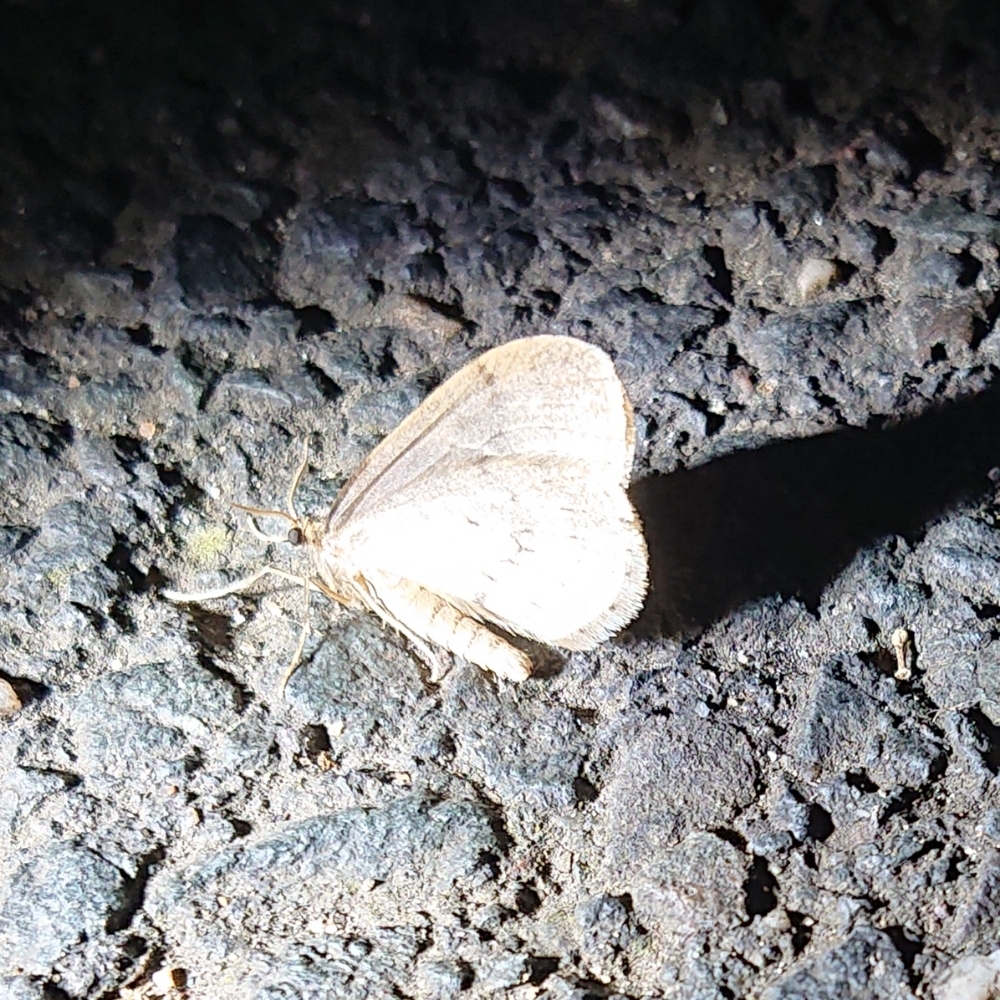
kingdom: Animalia
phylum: Arthropoda
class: Insecta
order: Lepidoptera
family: Geometridae
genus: Operophtera
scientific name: Operophtera brumata
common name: Winter moth
